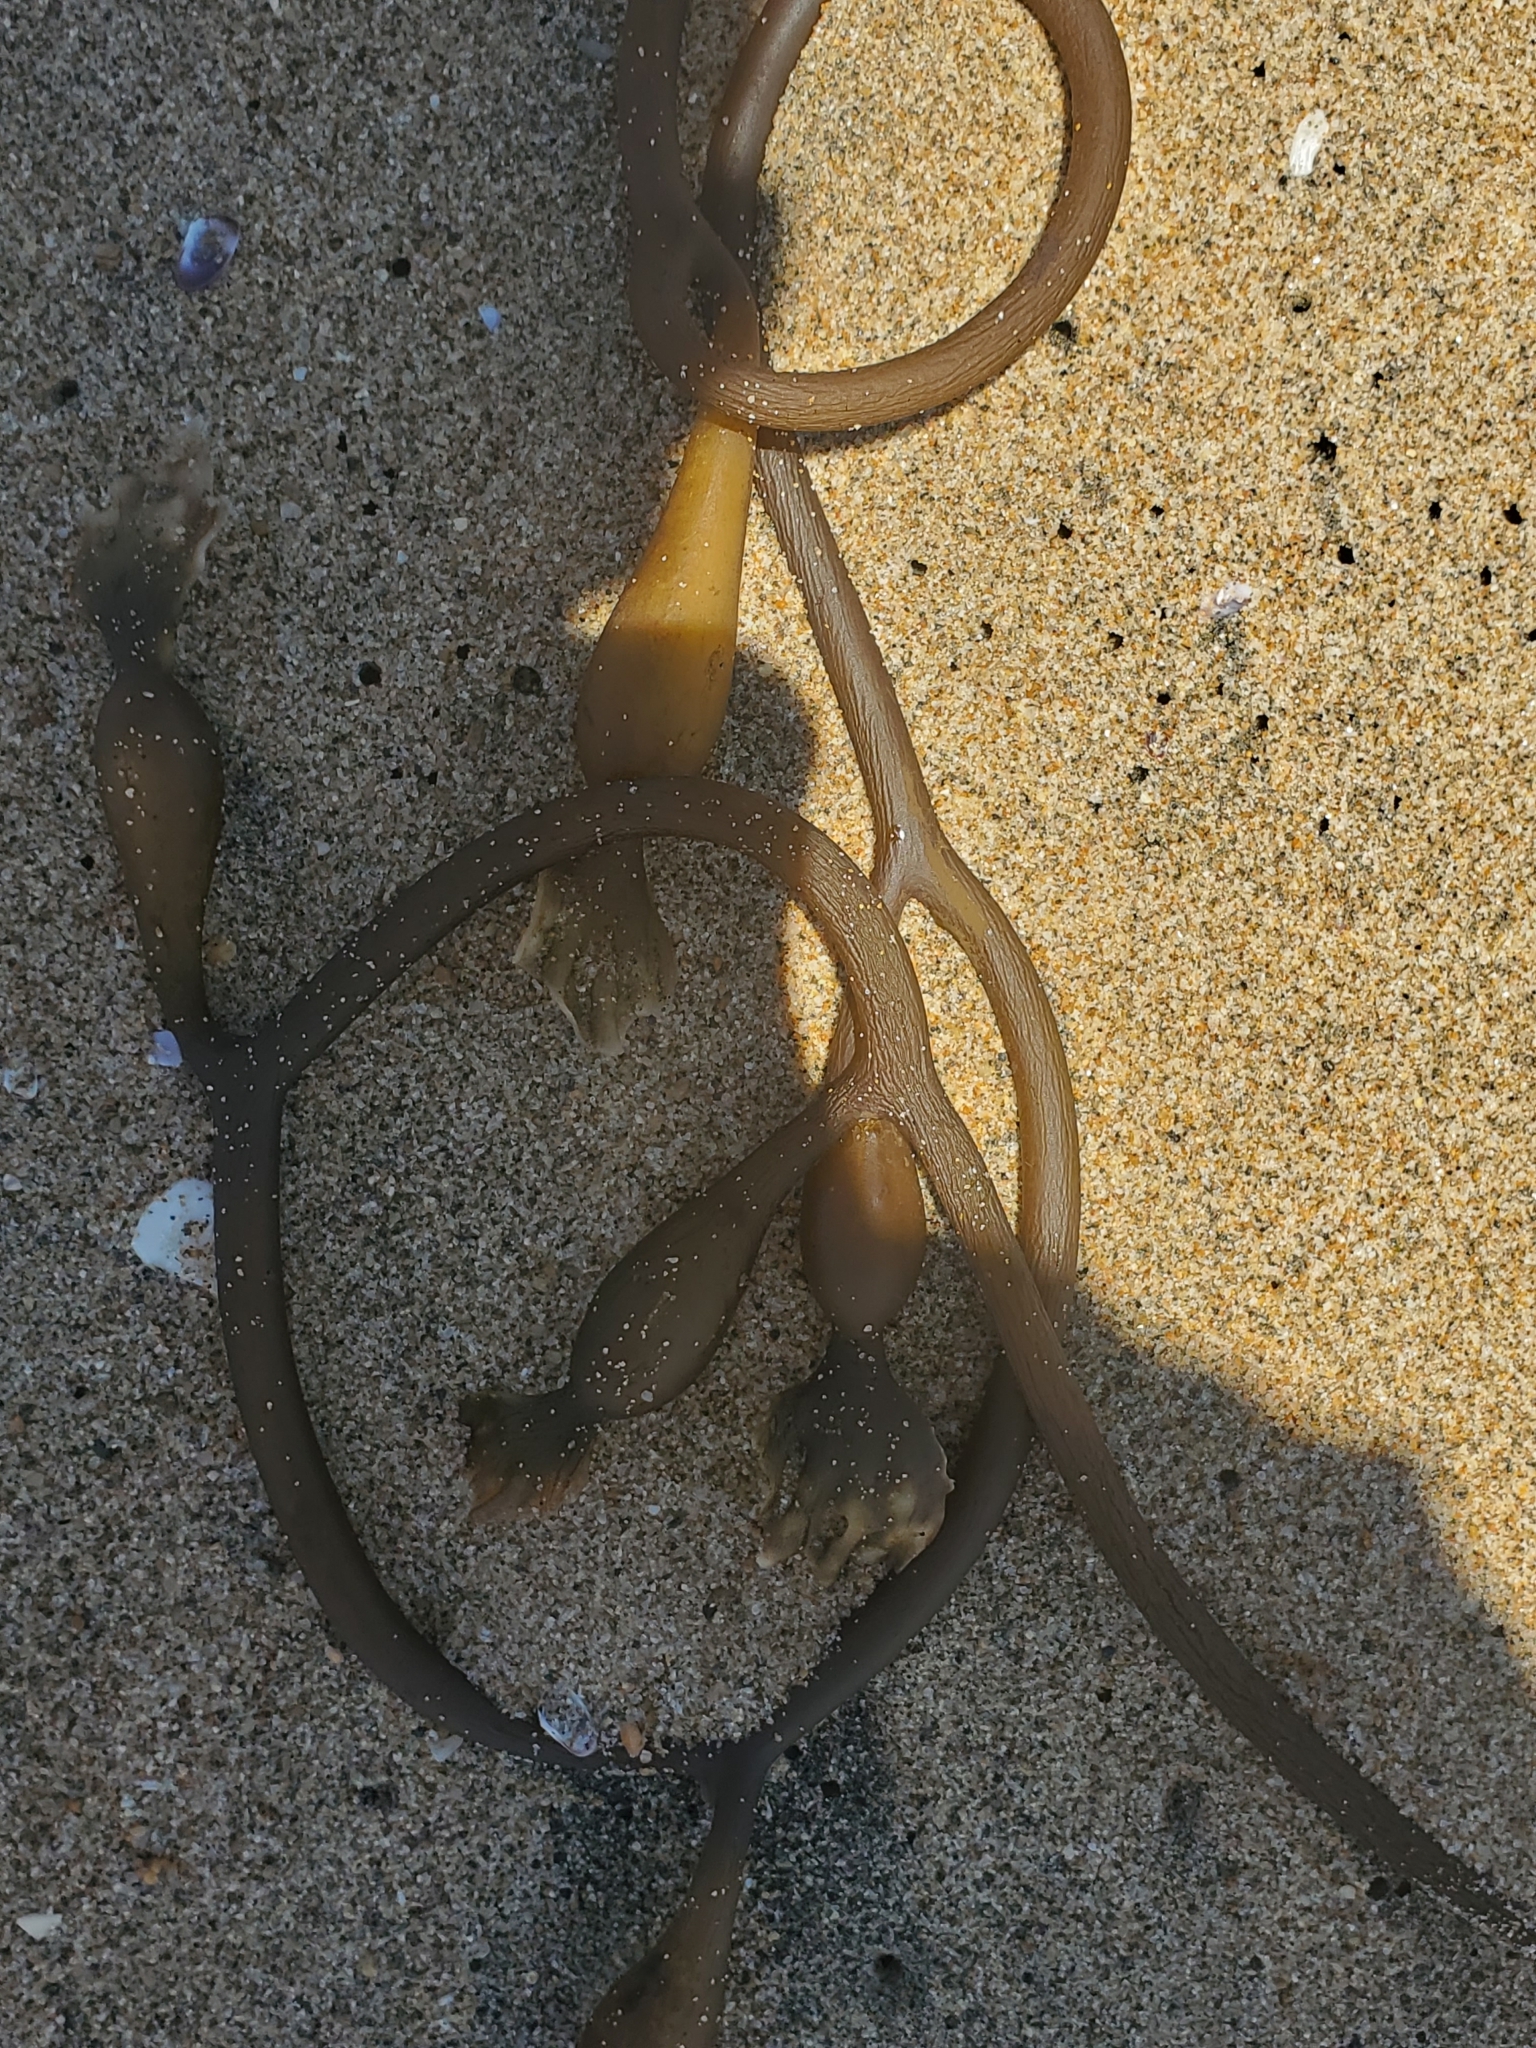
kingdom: Chromista
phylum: Ochrophyta
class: Phaeophyceae
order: Laminariales
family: Laminariaceae
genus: Macrocystis
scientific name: Macrocystis pyrifera
